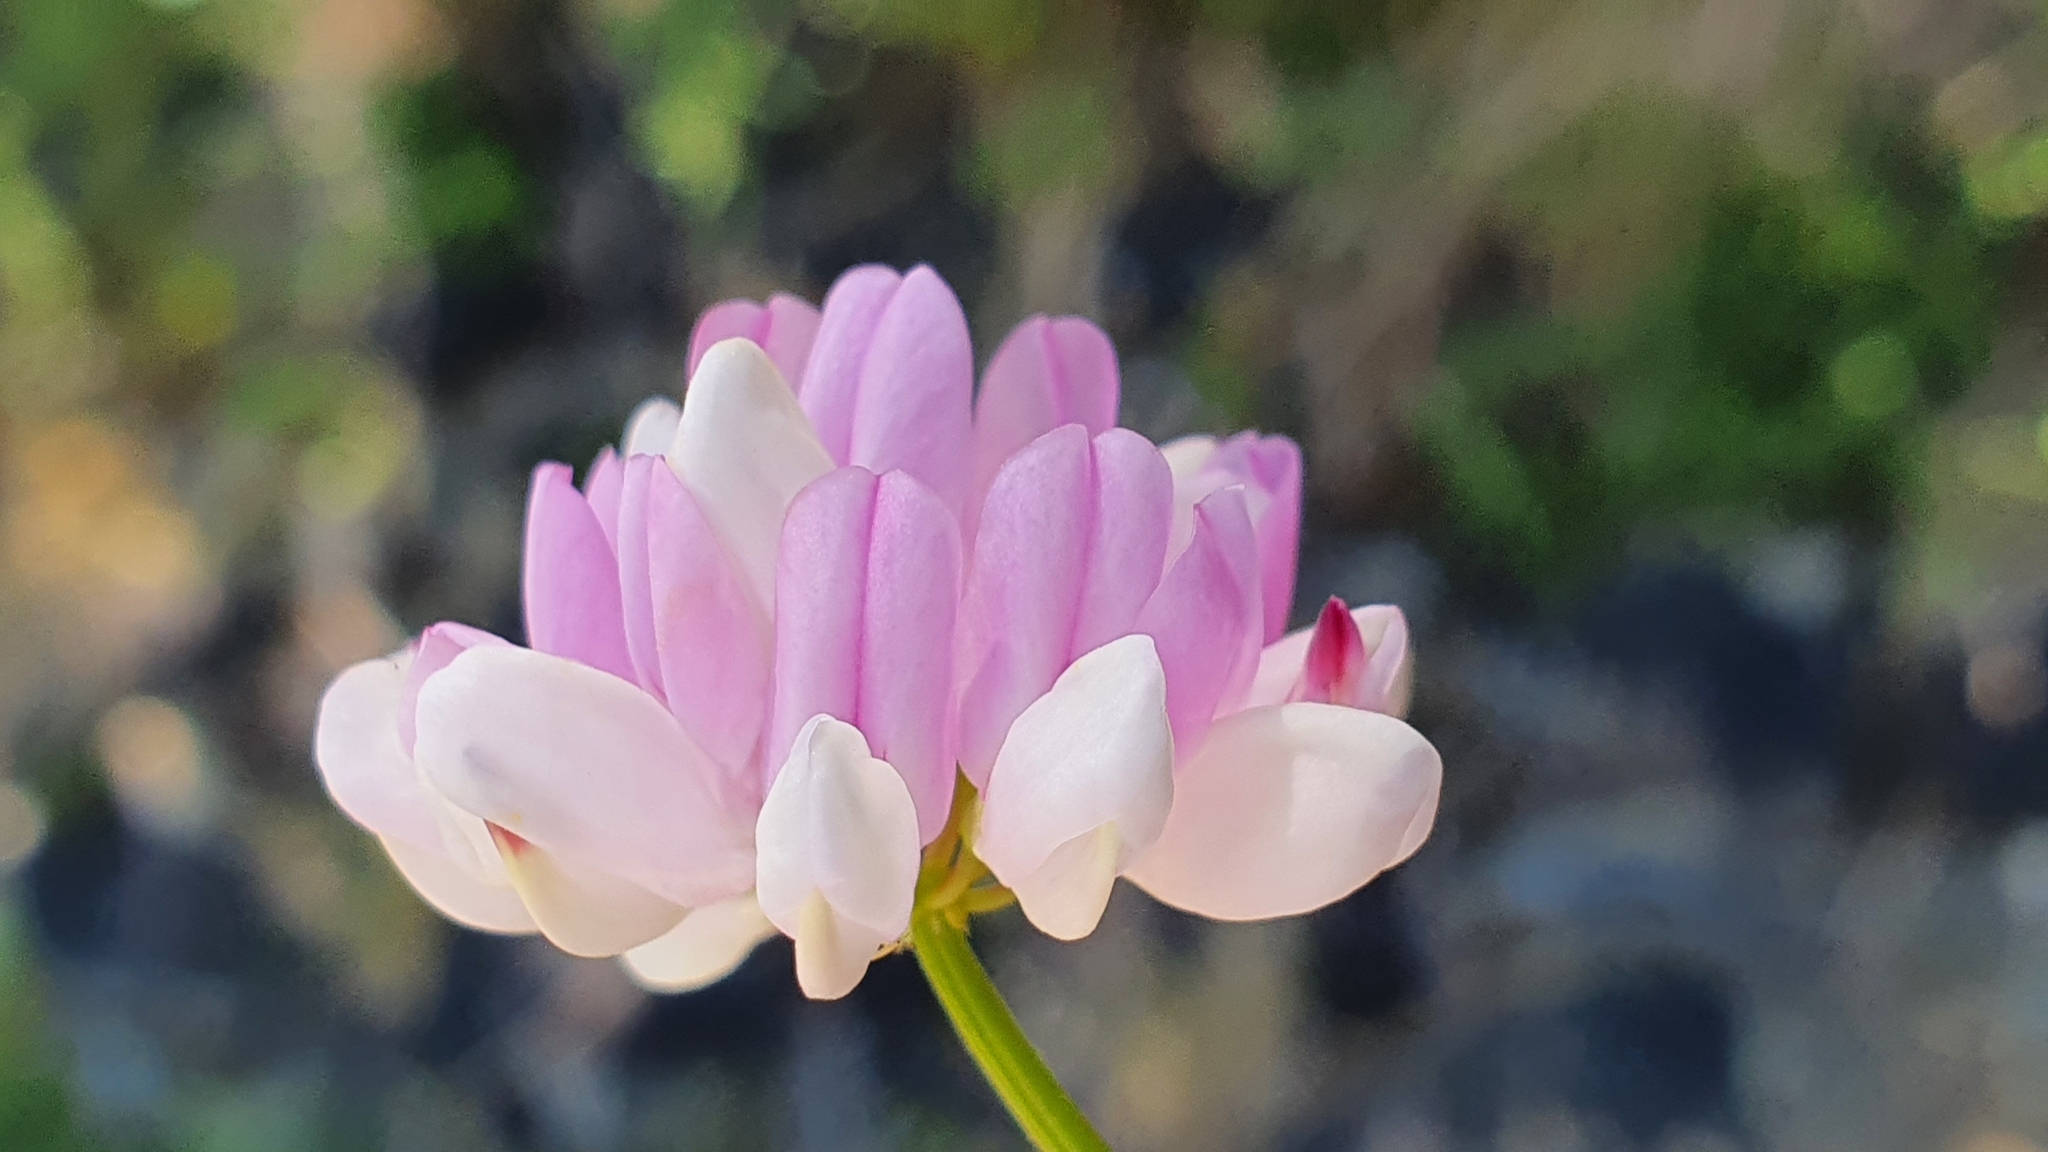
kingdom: Plantae
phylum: Tracheophyta
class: Magnoliopsida
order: Fabales
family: Fabaceae
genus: Coronilla
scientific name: Coronilla varia
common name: Crownvetch
